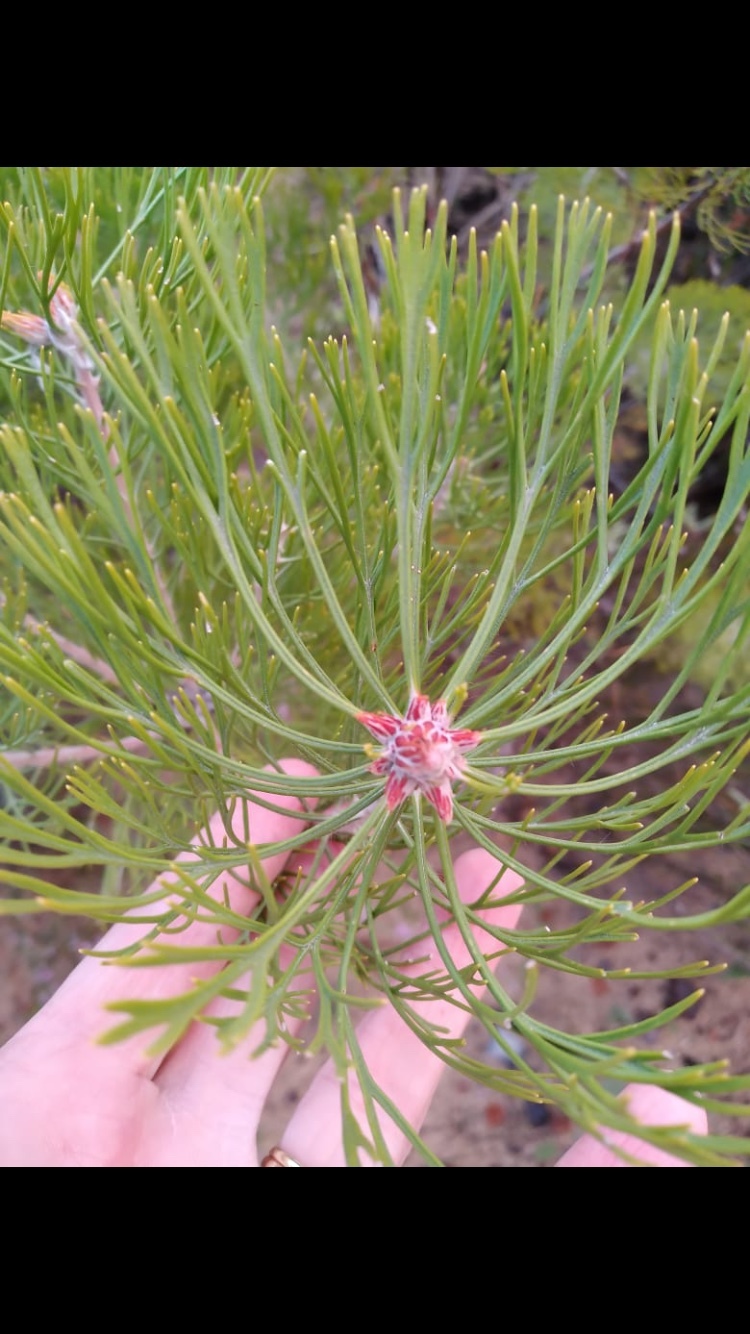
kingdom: Plantae
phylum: Tracheophyta
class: Magnoliopsida
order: Proteales
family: Proteaceae
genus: Paranomus
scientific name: Paranomus bracteolaris
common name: Bokkeveld tree sceptre
